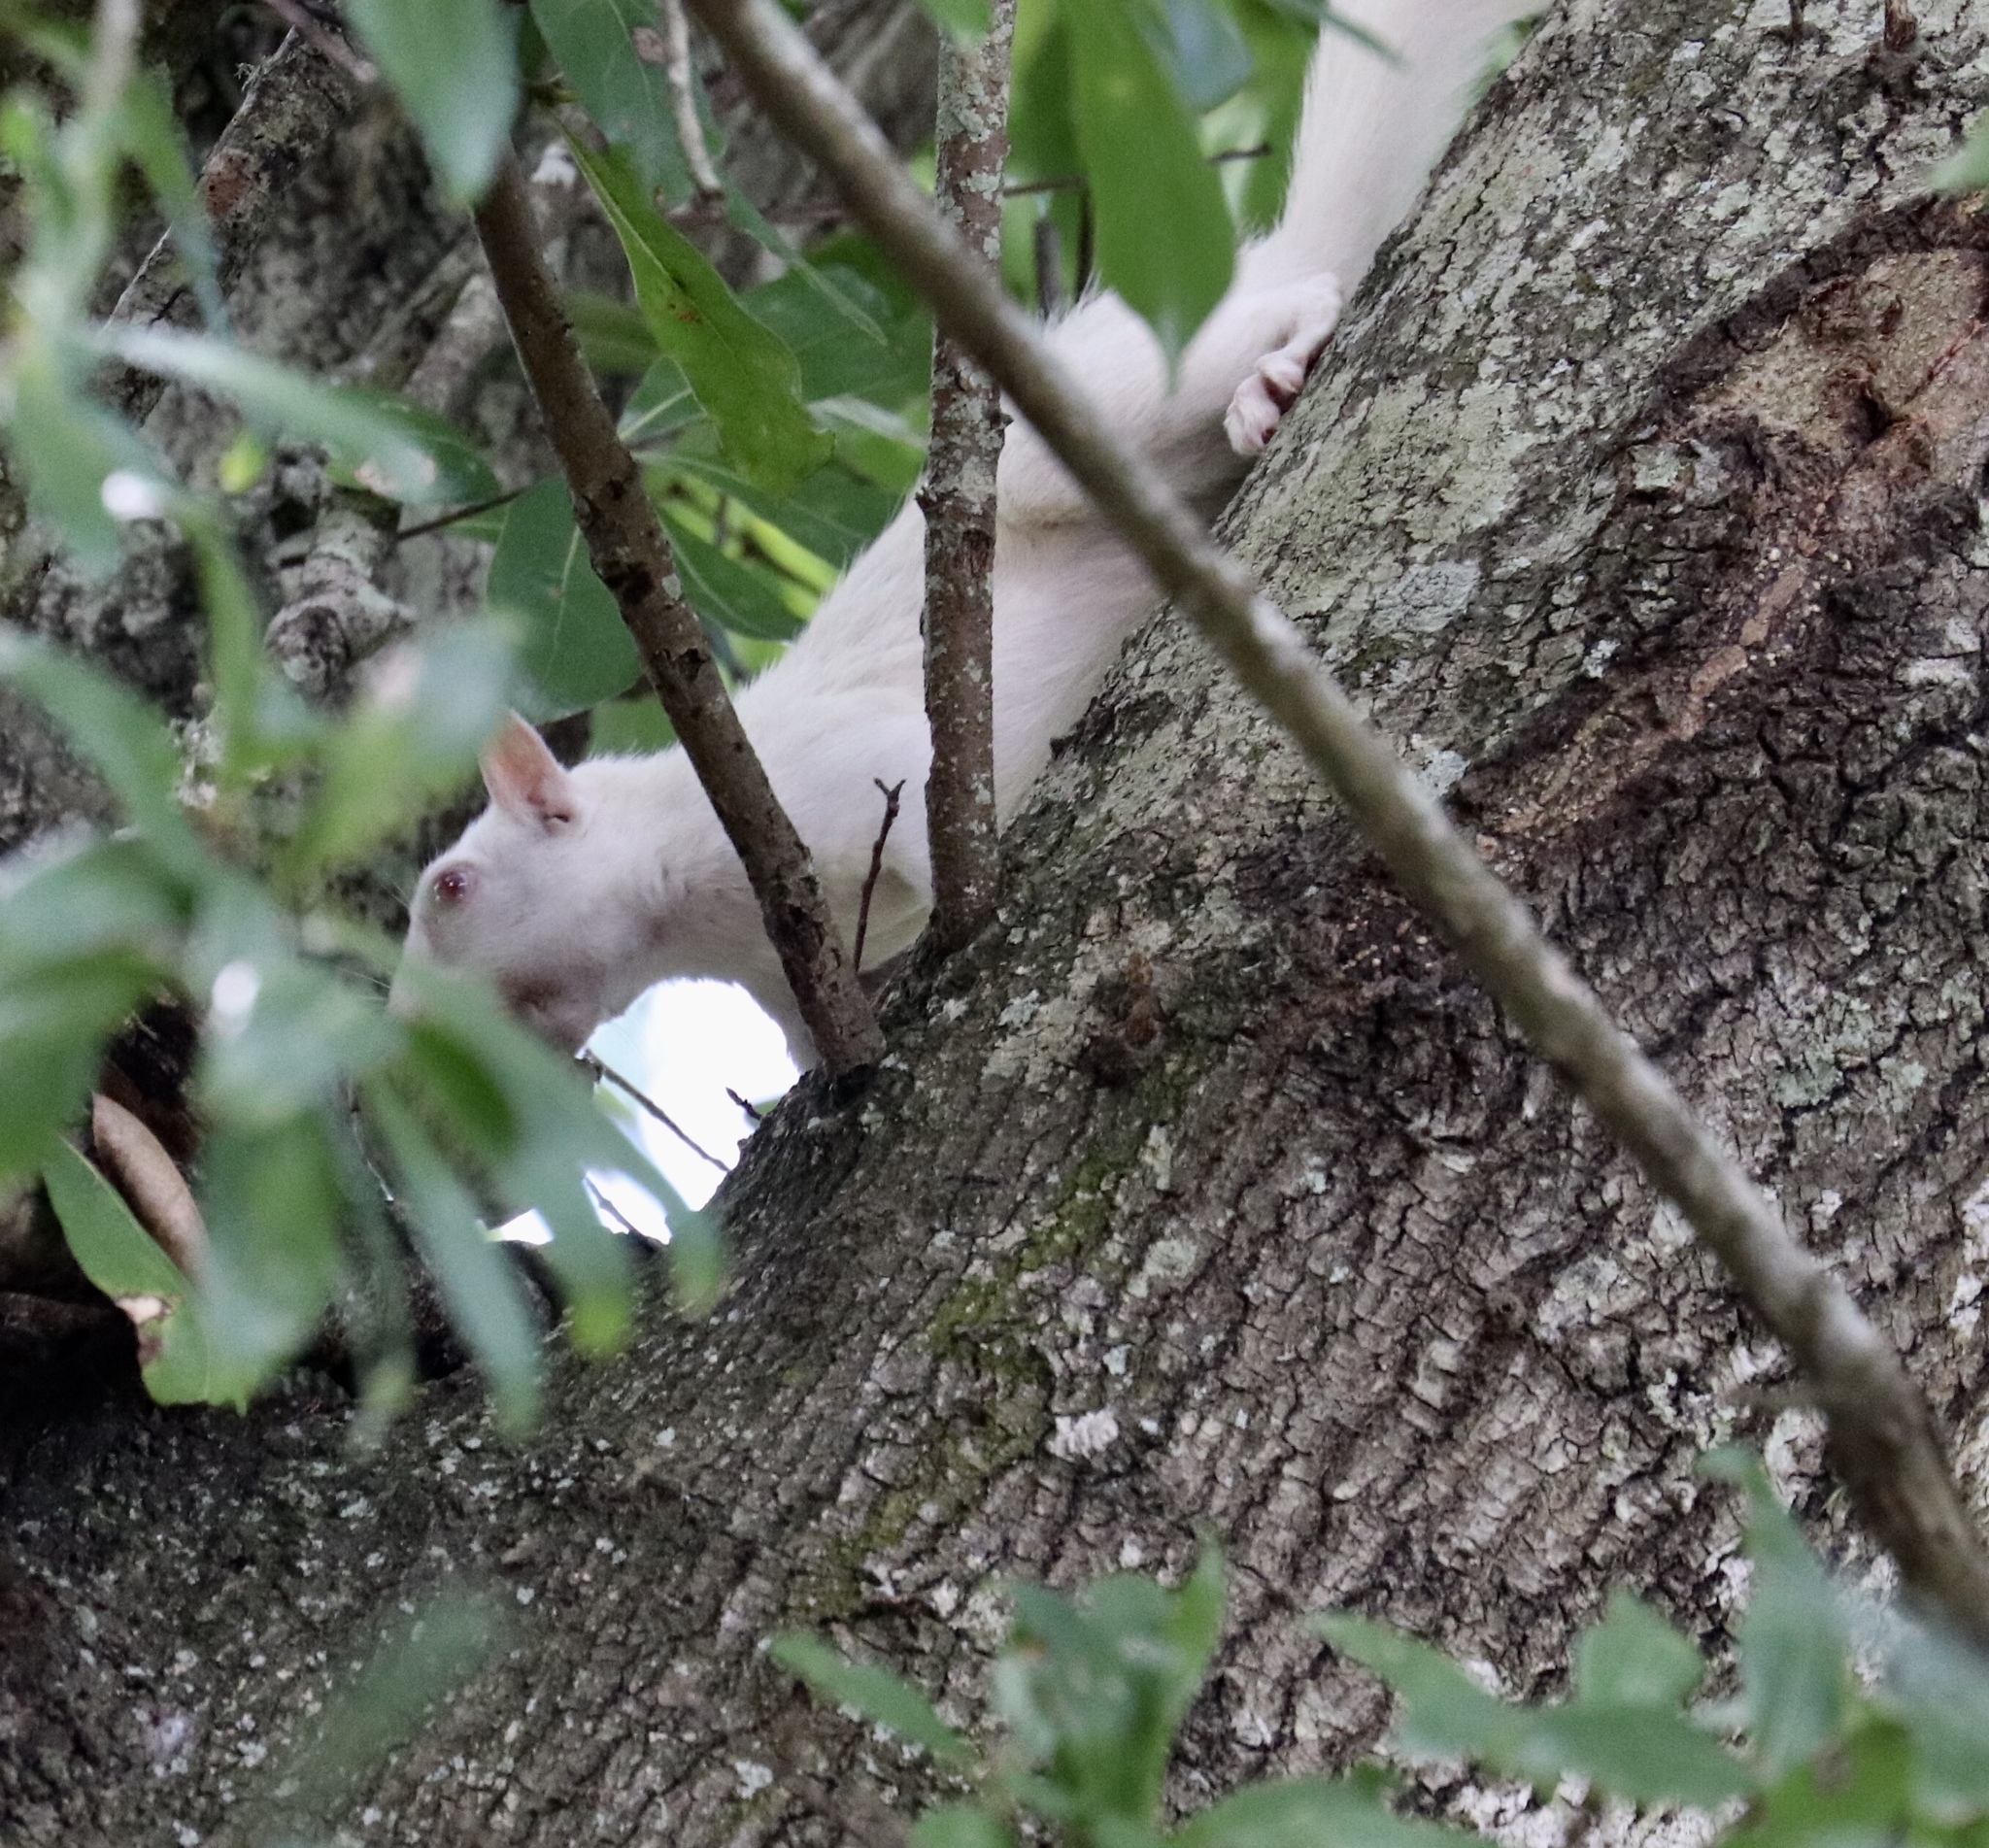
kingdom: Animalia
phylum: Chordata
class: Mammalia
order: Rodentia
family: Sciuridae
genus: Sciurus
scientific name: Sciurus carolinensis
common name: Eastern gray squirrel
